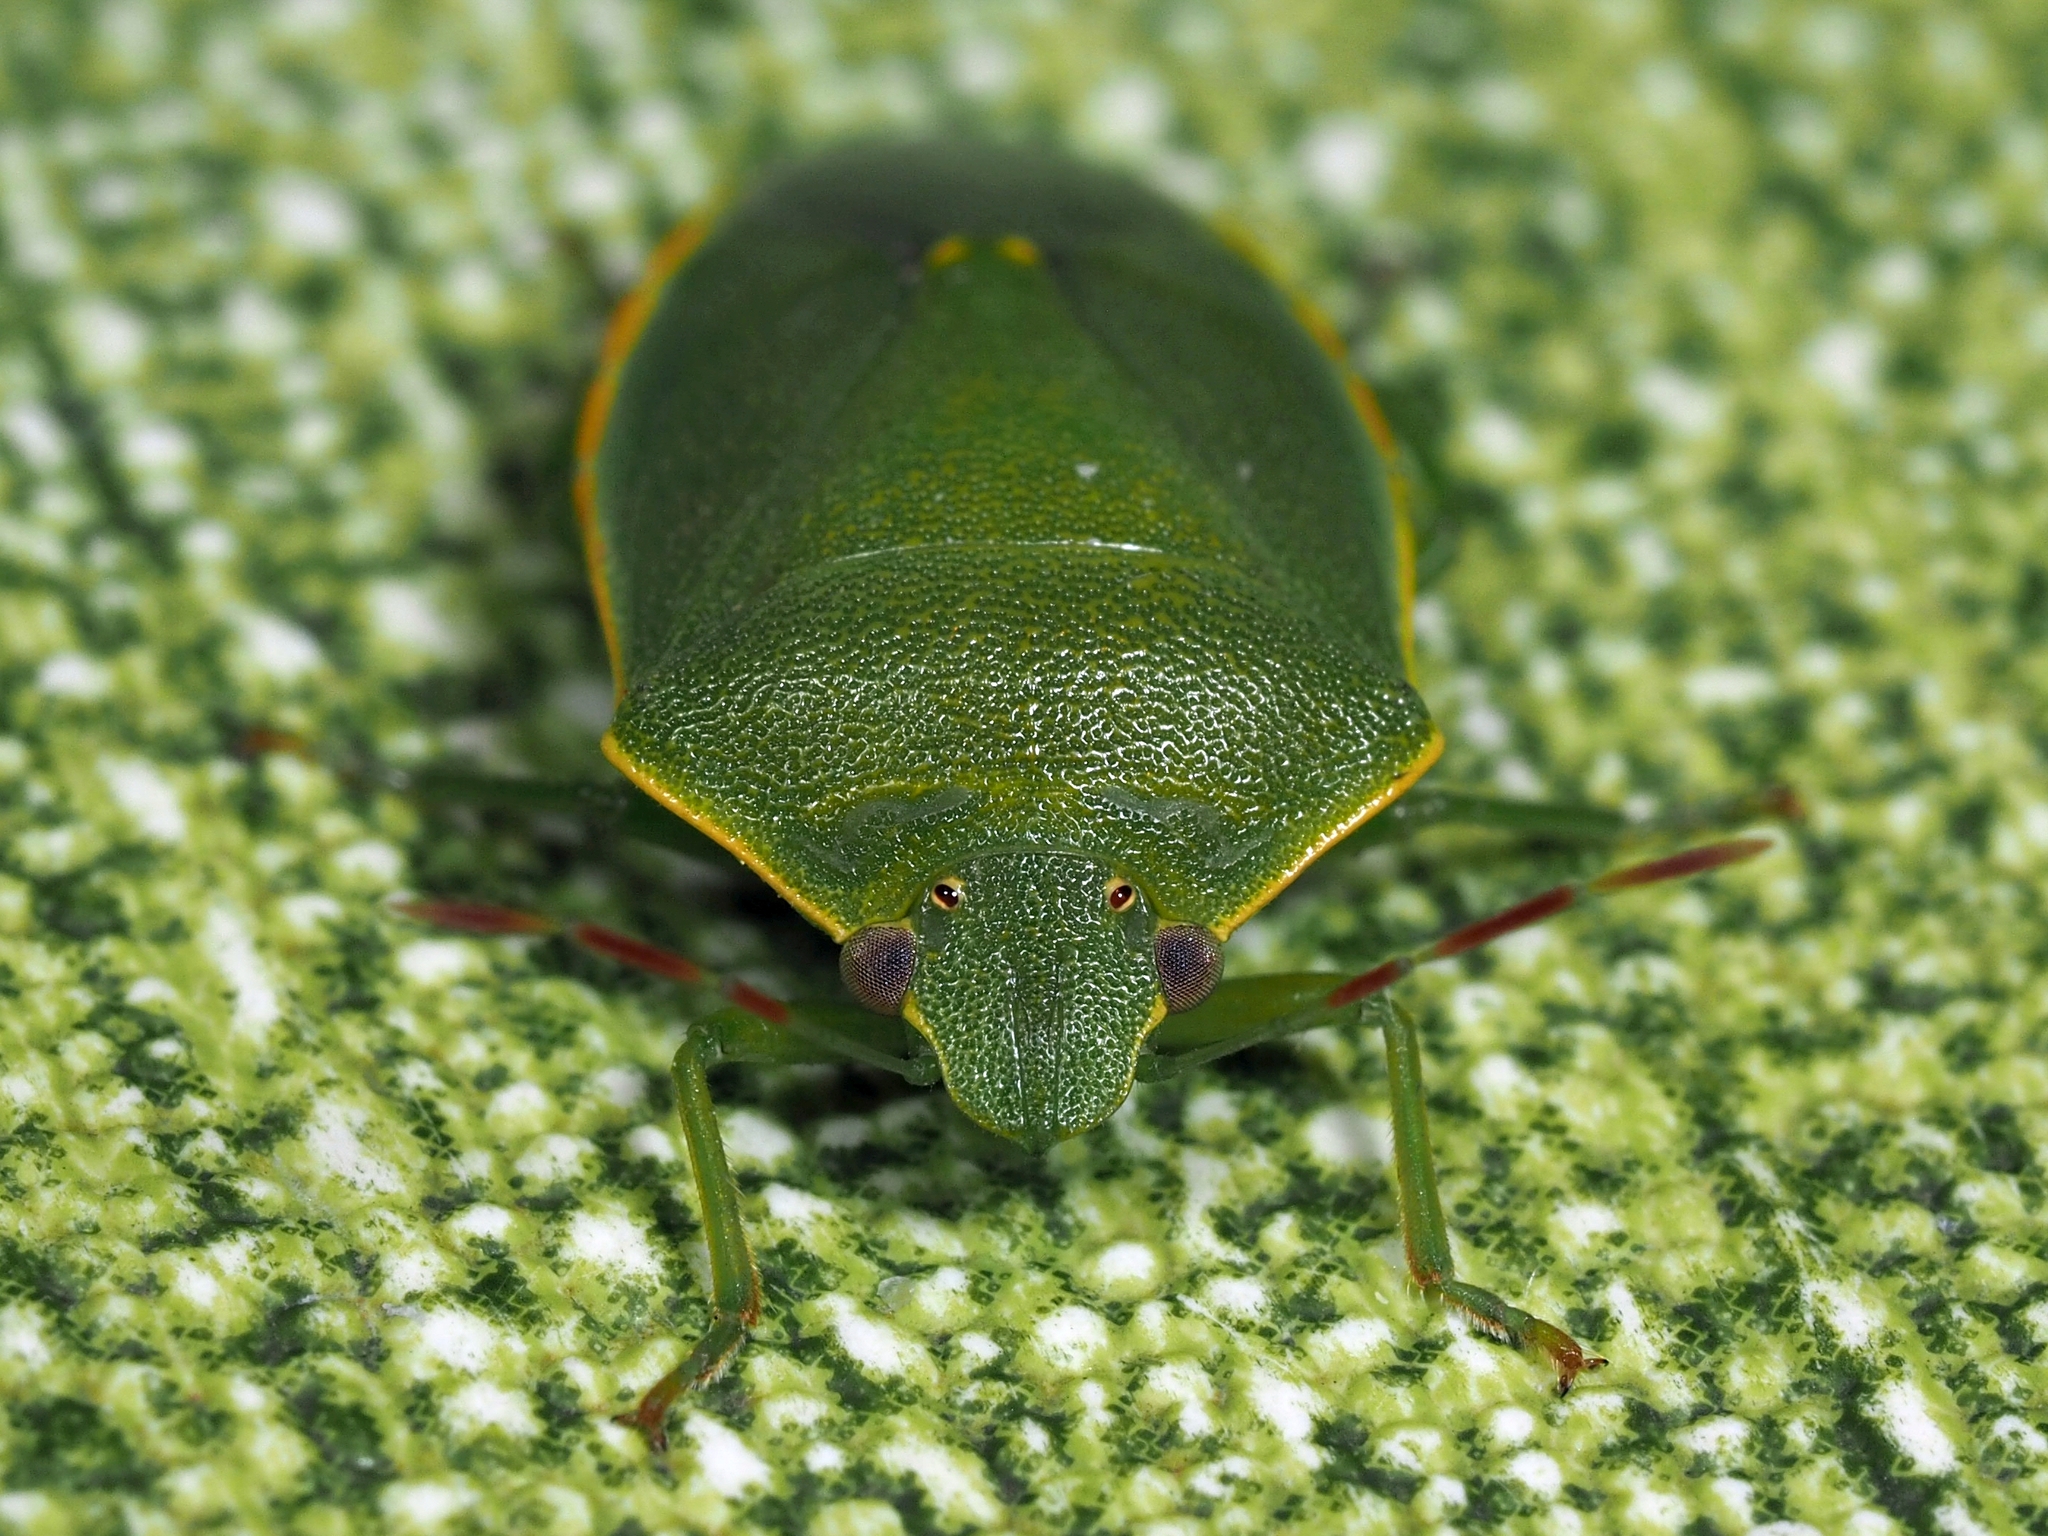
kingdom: Animalia
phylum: Arthropoda
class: Insecta
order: Hemiptera
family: Pentatomidae
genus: Acrosternum
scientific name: Acrosternum heegeri
